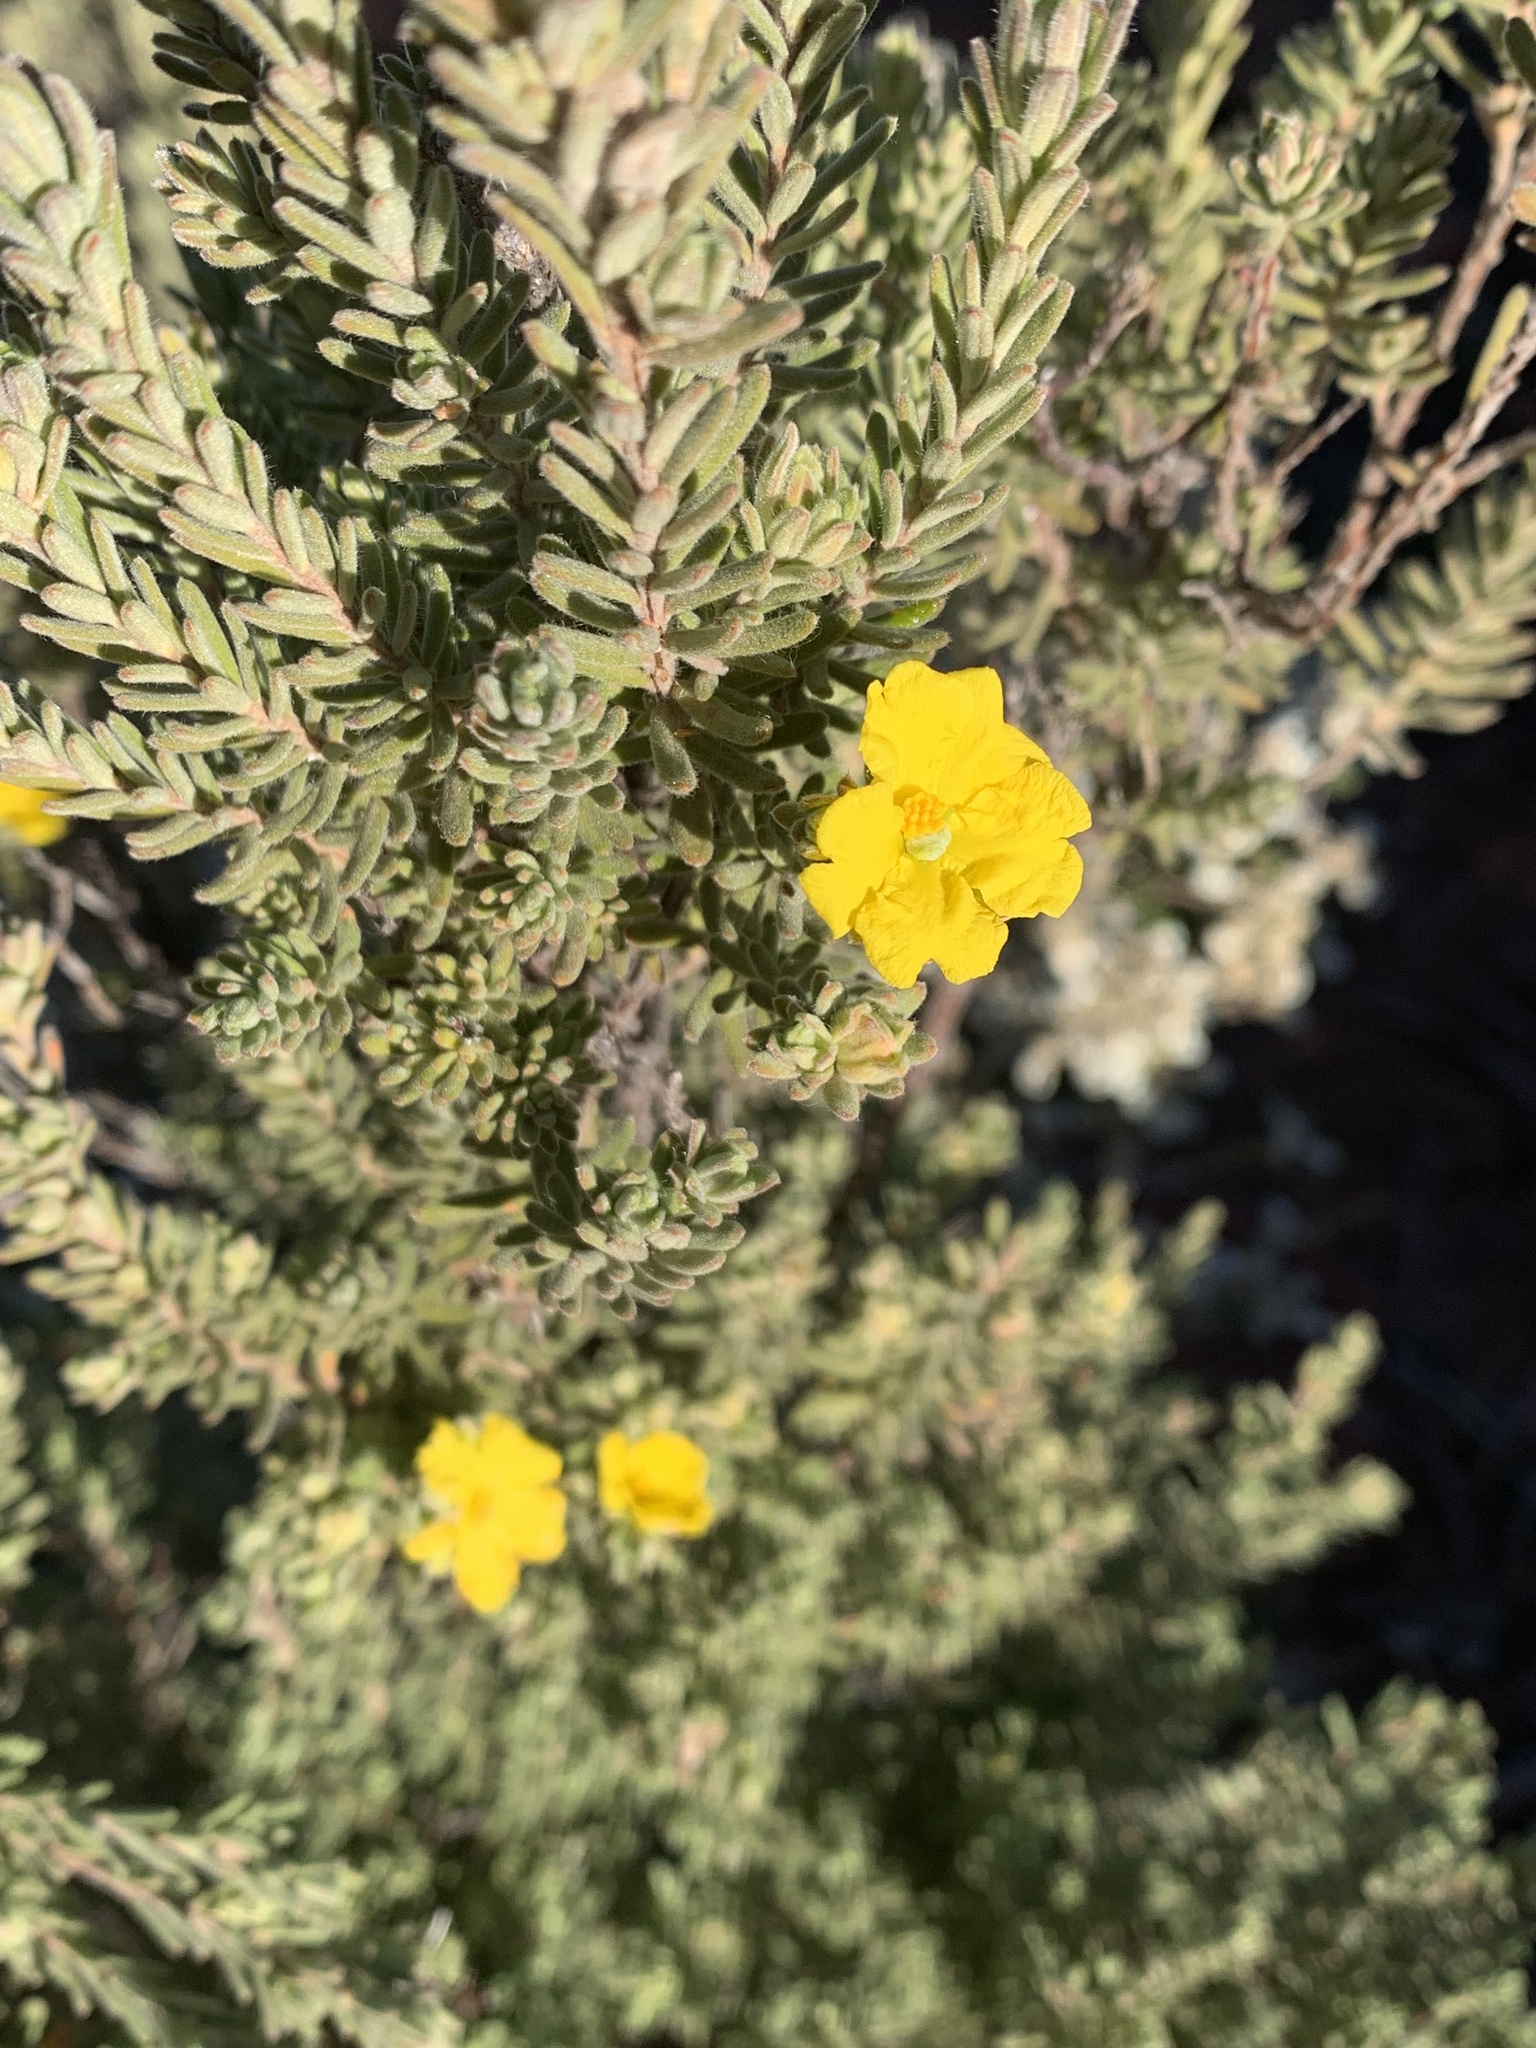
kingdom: Plantae
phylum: Tracheophyta
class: Magnoliopsida
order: Dilleniales
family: Dilleniaceae
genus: Hibbertia
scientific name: Hibbertia crinita
